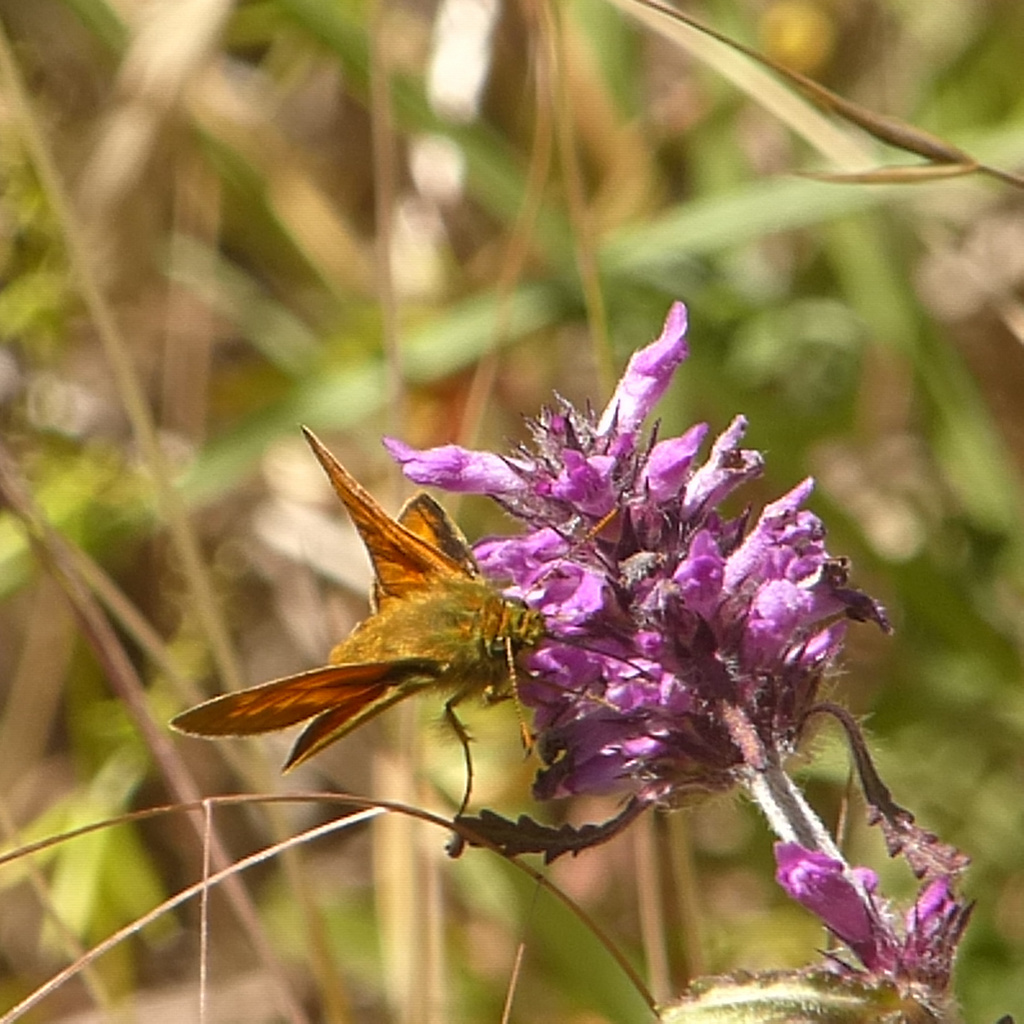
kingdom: Animalia
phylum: Arthropoda
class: Insecta
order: Lepidoptera
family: Hesperiidae
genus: Ochlodes
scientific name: Ochlodes venata
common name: Large skipper
